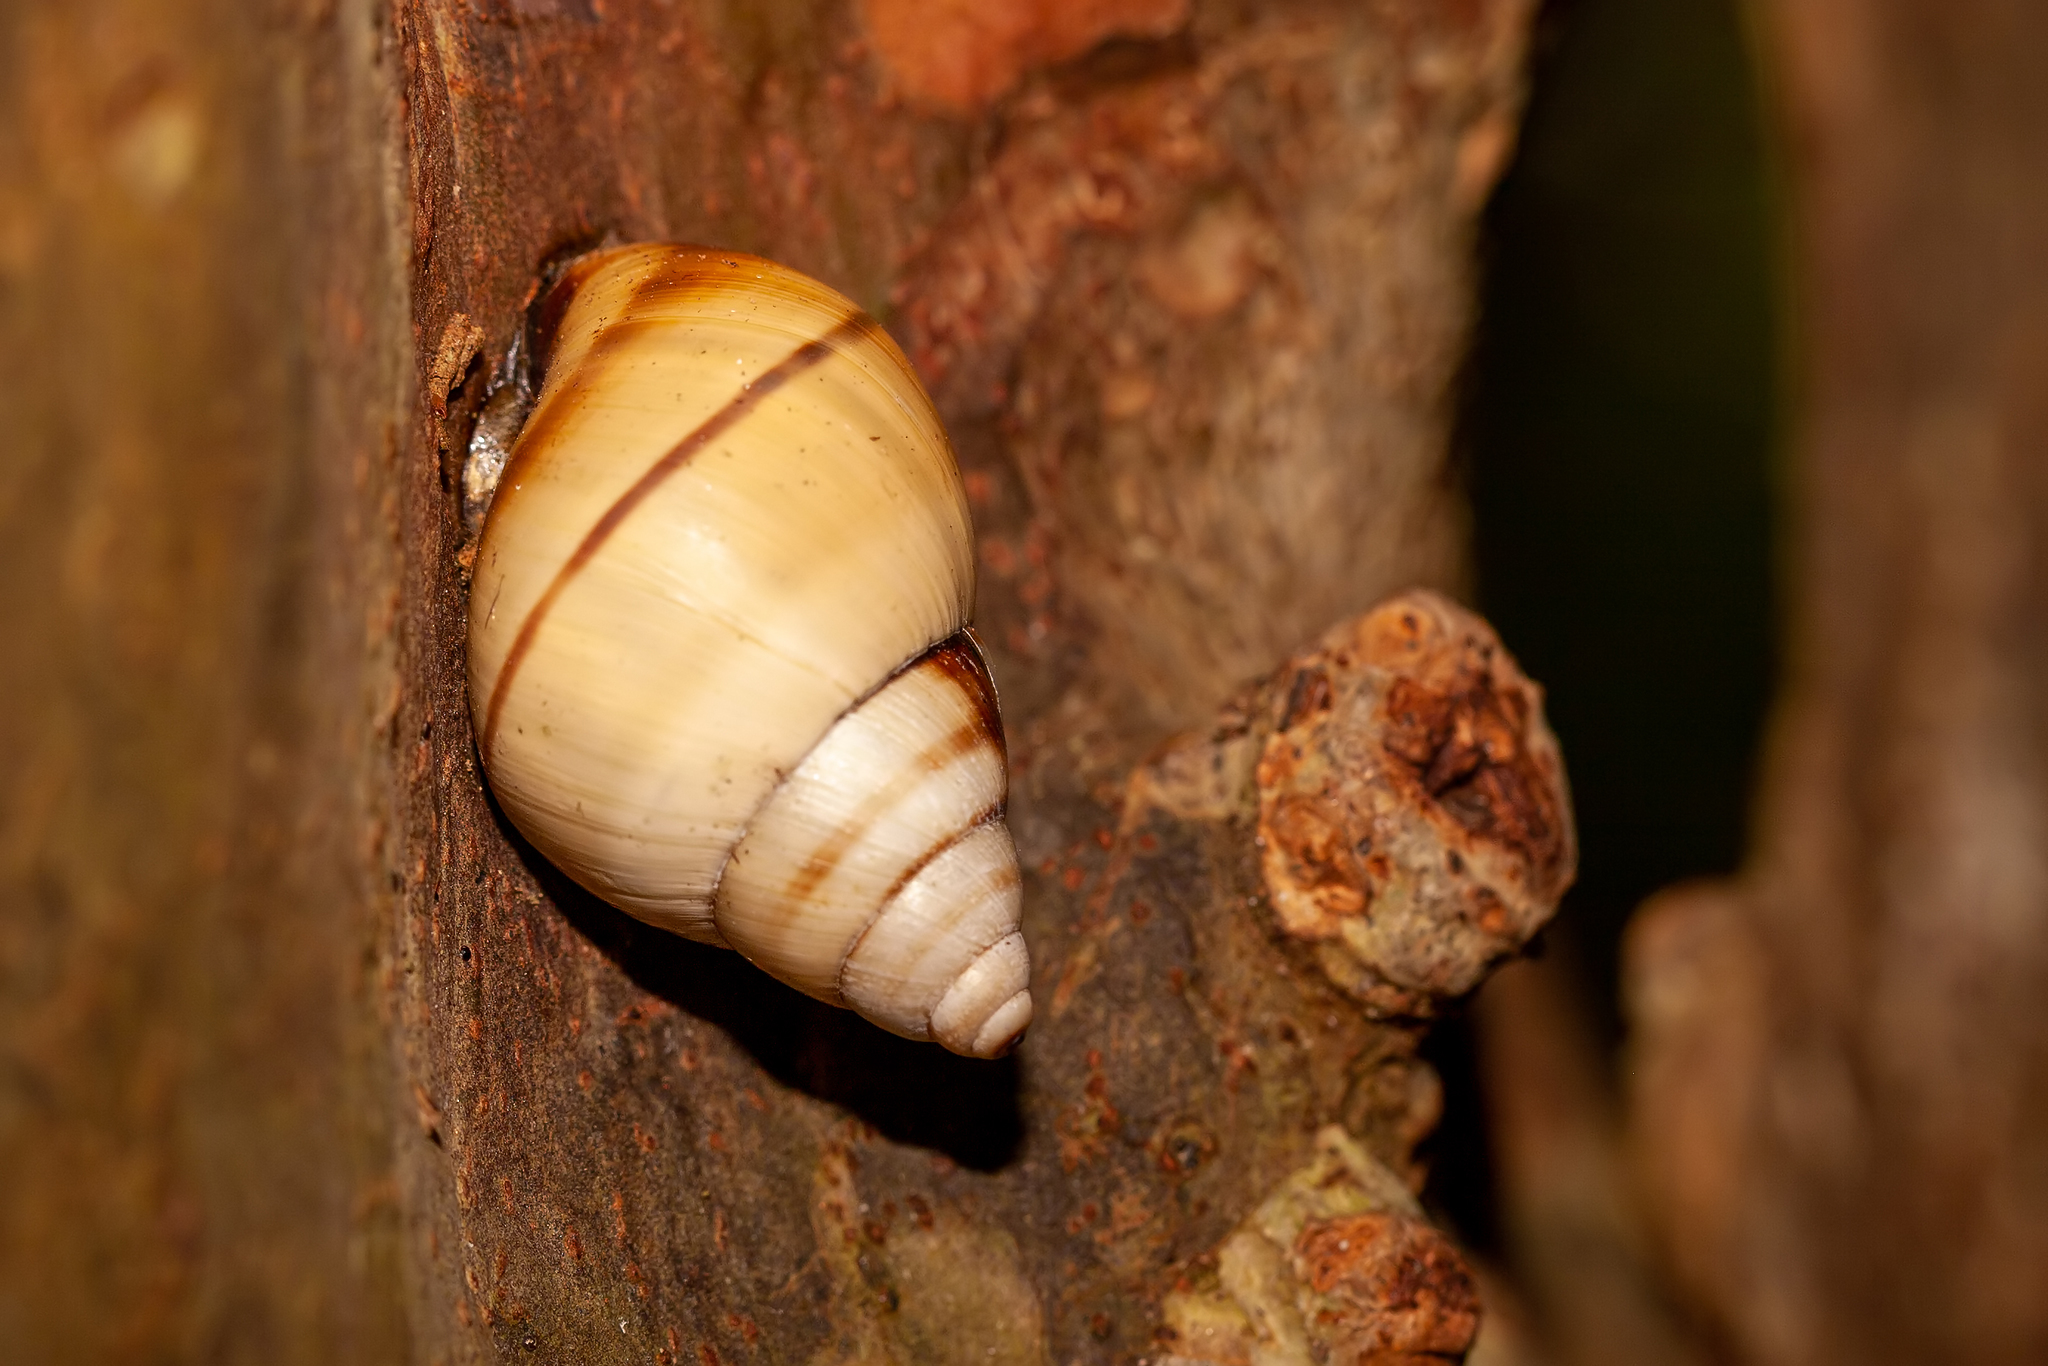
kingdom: Animalia
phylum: Mollusca
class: Gastropoda
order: Stylommatophora
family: Orthalicidae
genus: Orthalicus
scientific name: Orthalicus floridensis
